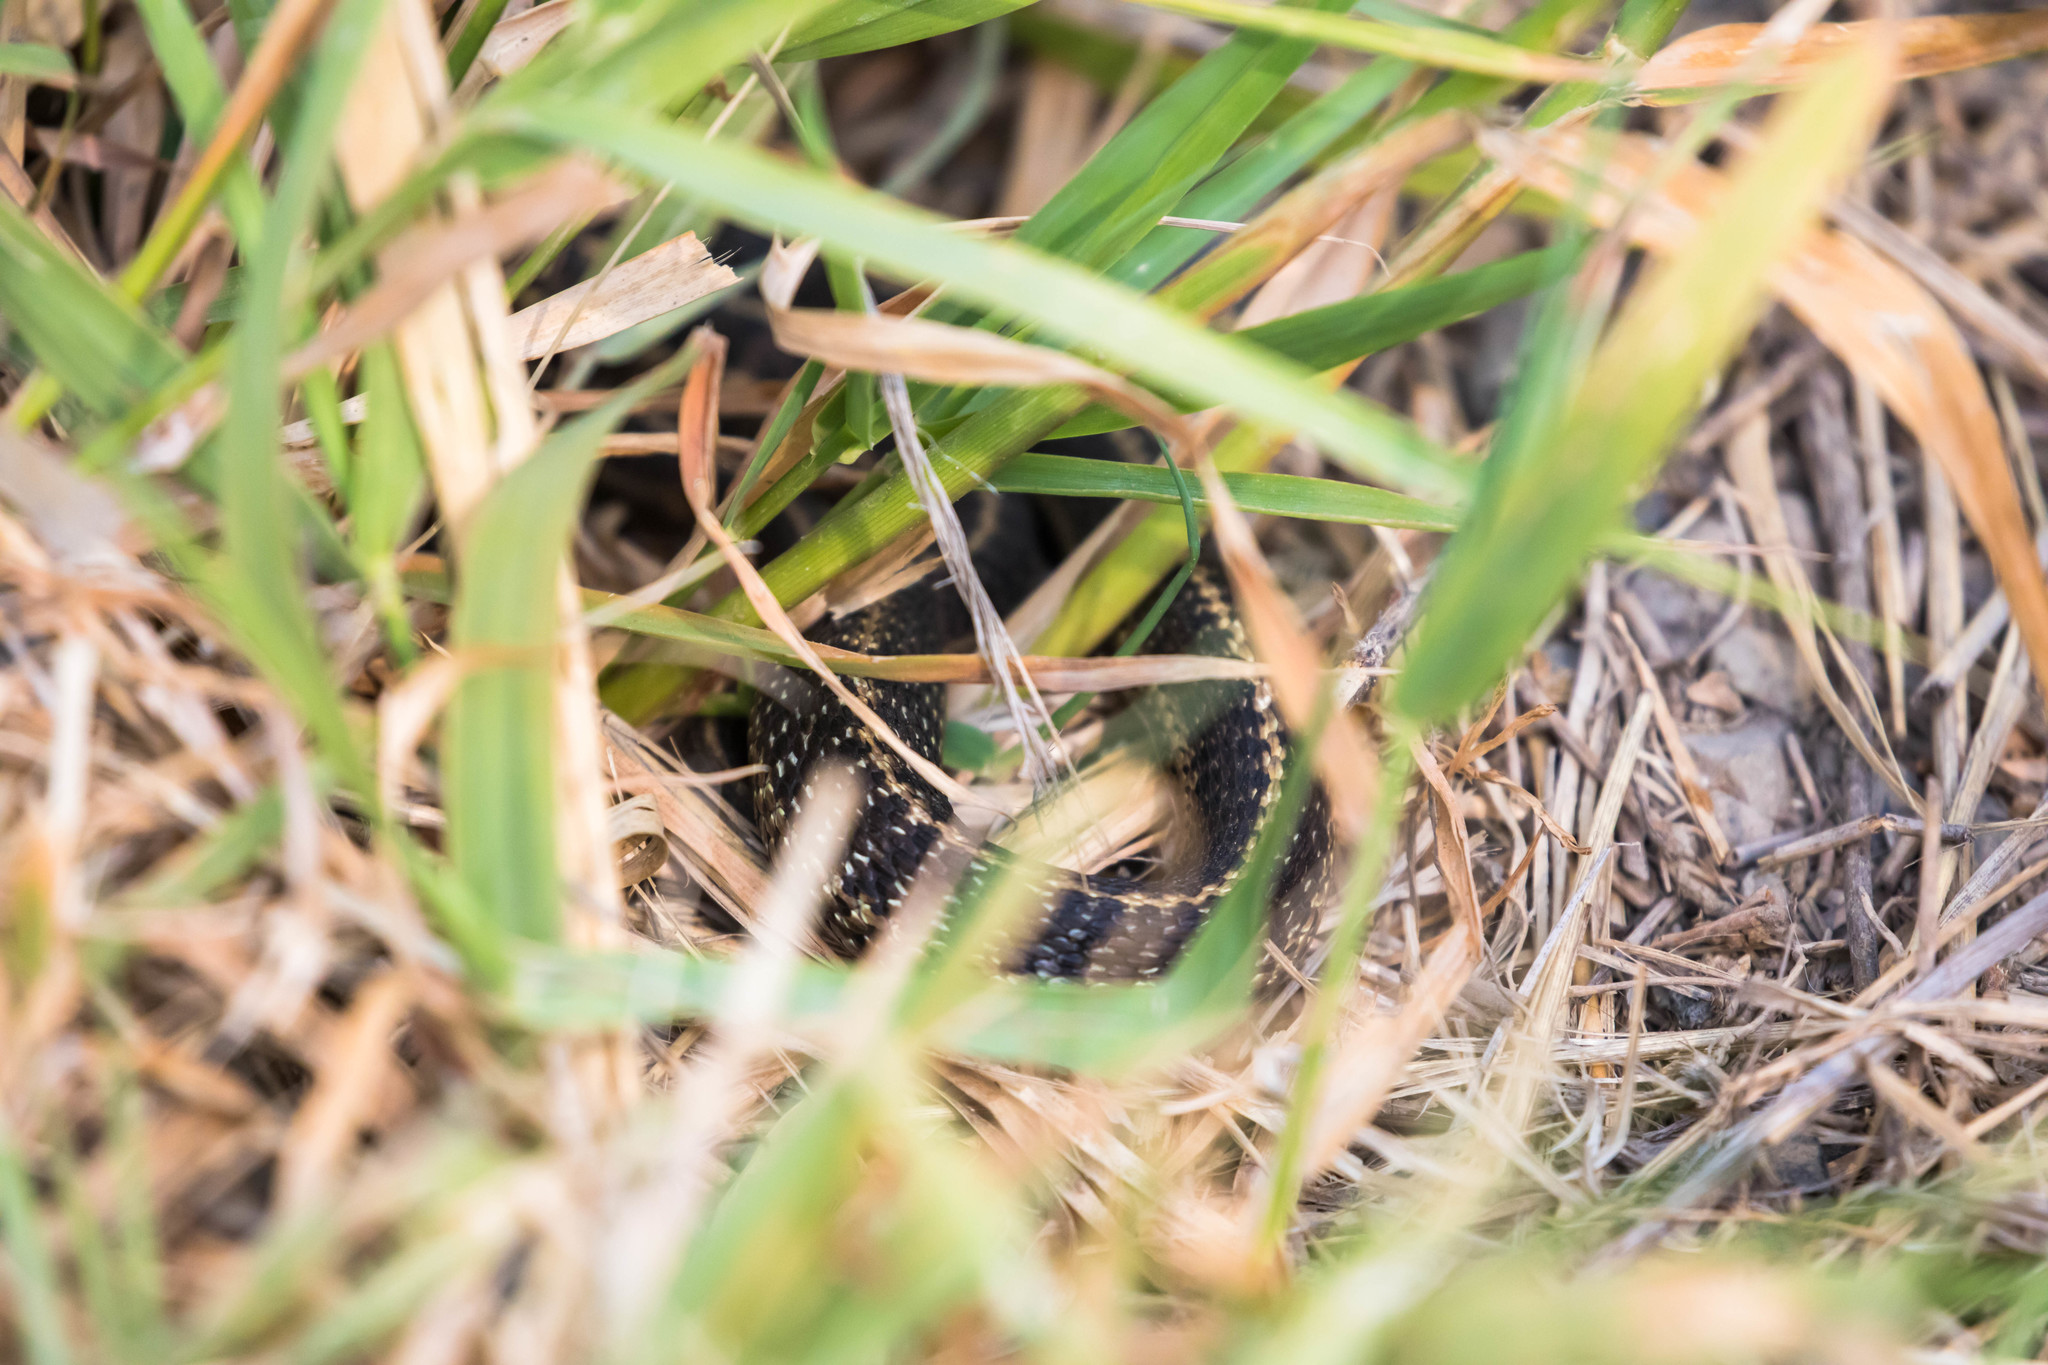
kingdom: Animalia
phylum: Chordata
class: Squamata
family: Colubridae
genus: Thamnophis
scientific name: Thamnophis elegans
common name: Western terrestrial garter snake
